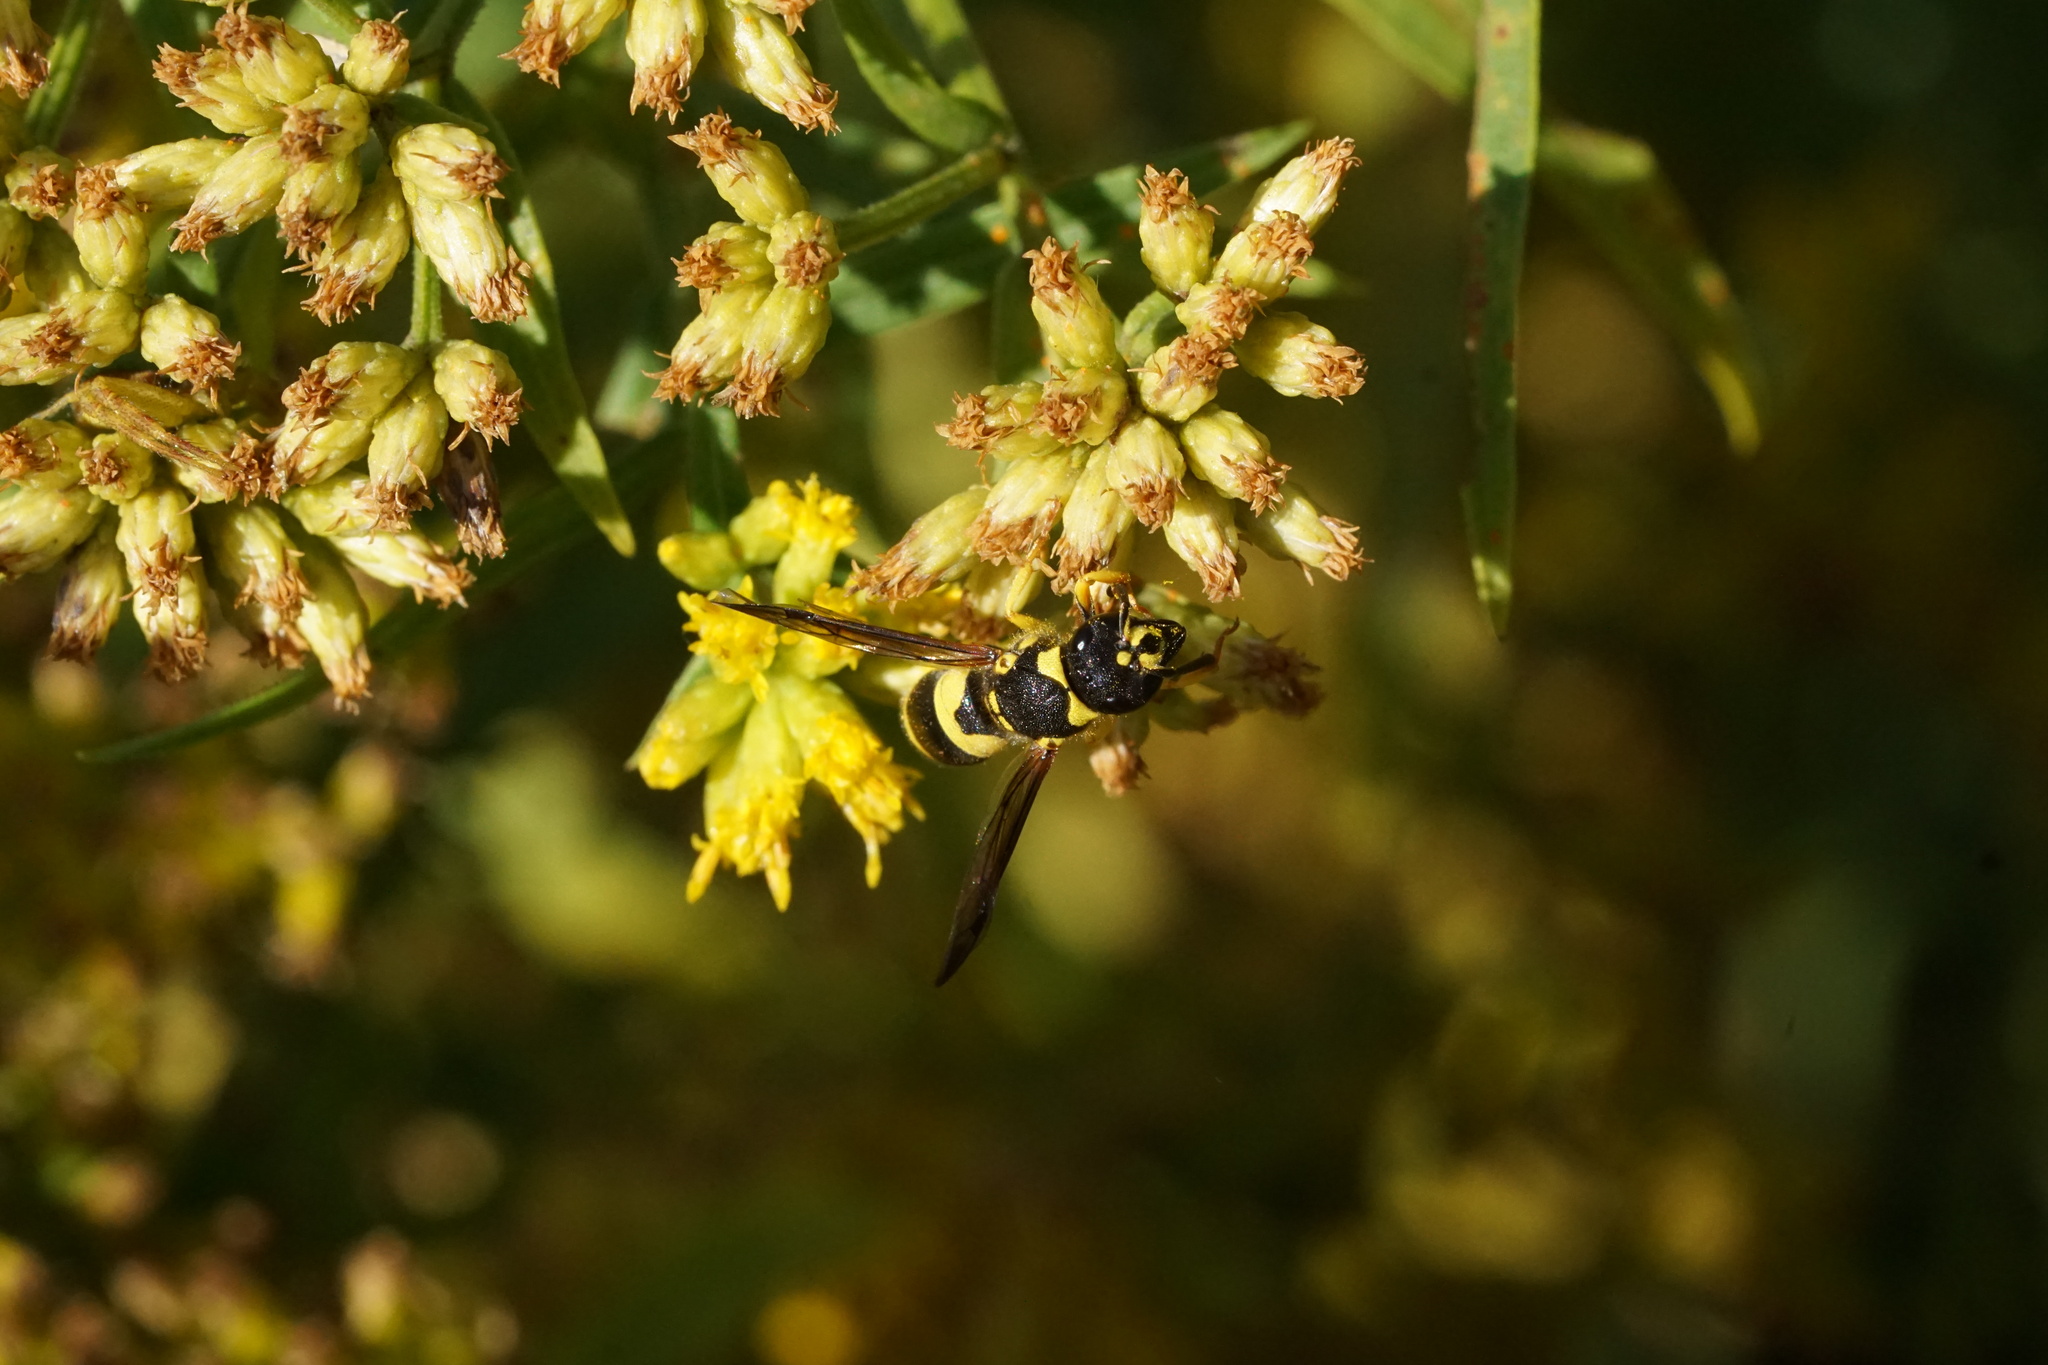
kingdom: Animalia
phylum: Arthropoda
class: Insecta
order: Hymenoptera
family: Vespidae
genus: Ancistrocerus
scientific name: Ancistrocerus gazella
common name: European tube wasp
